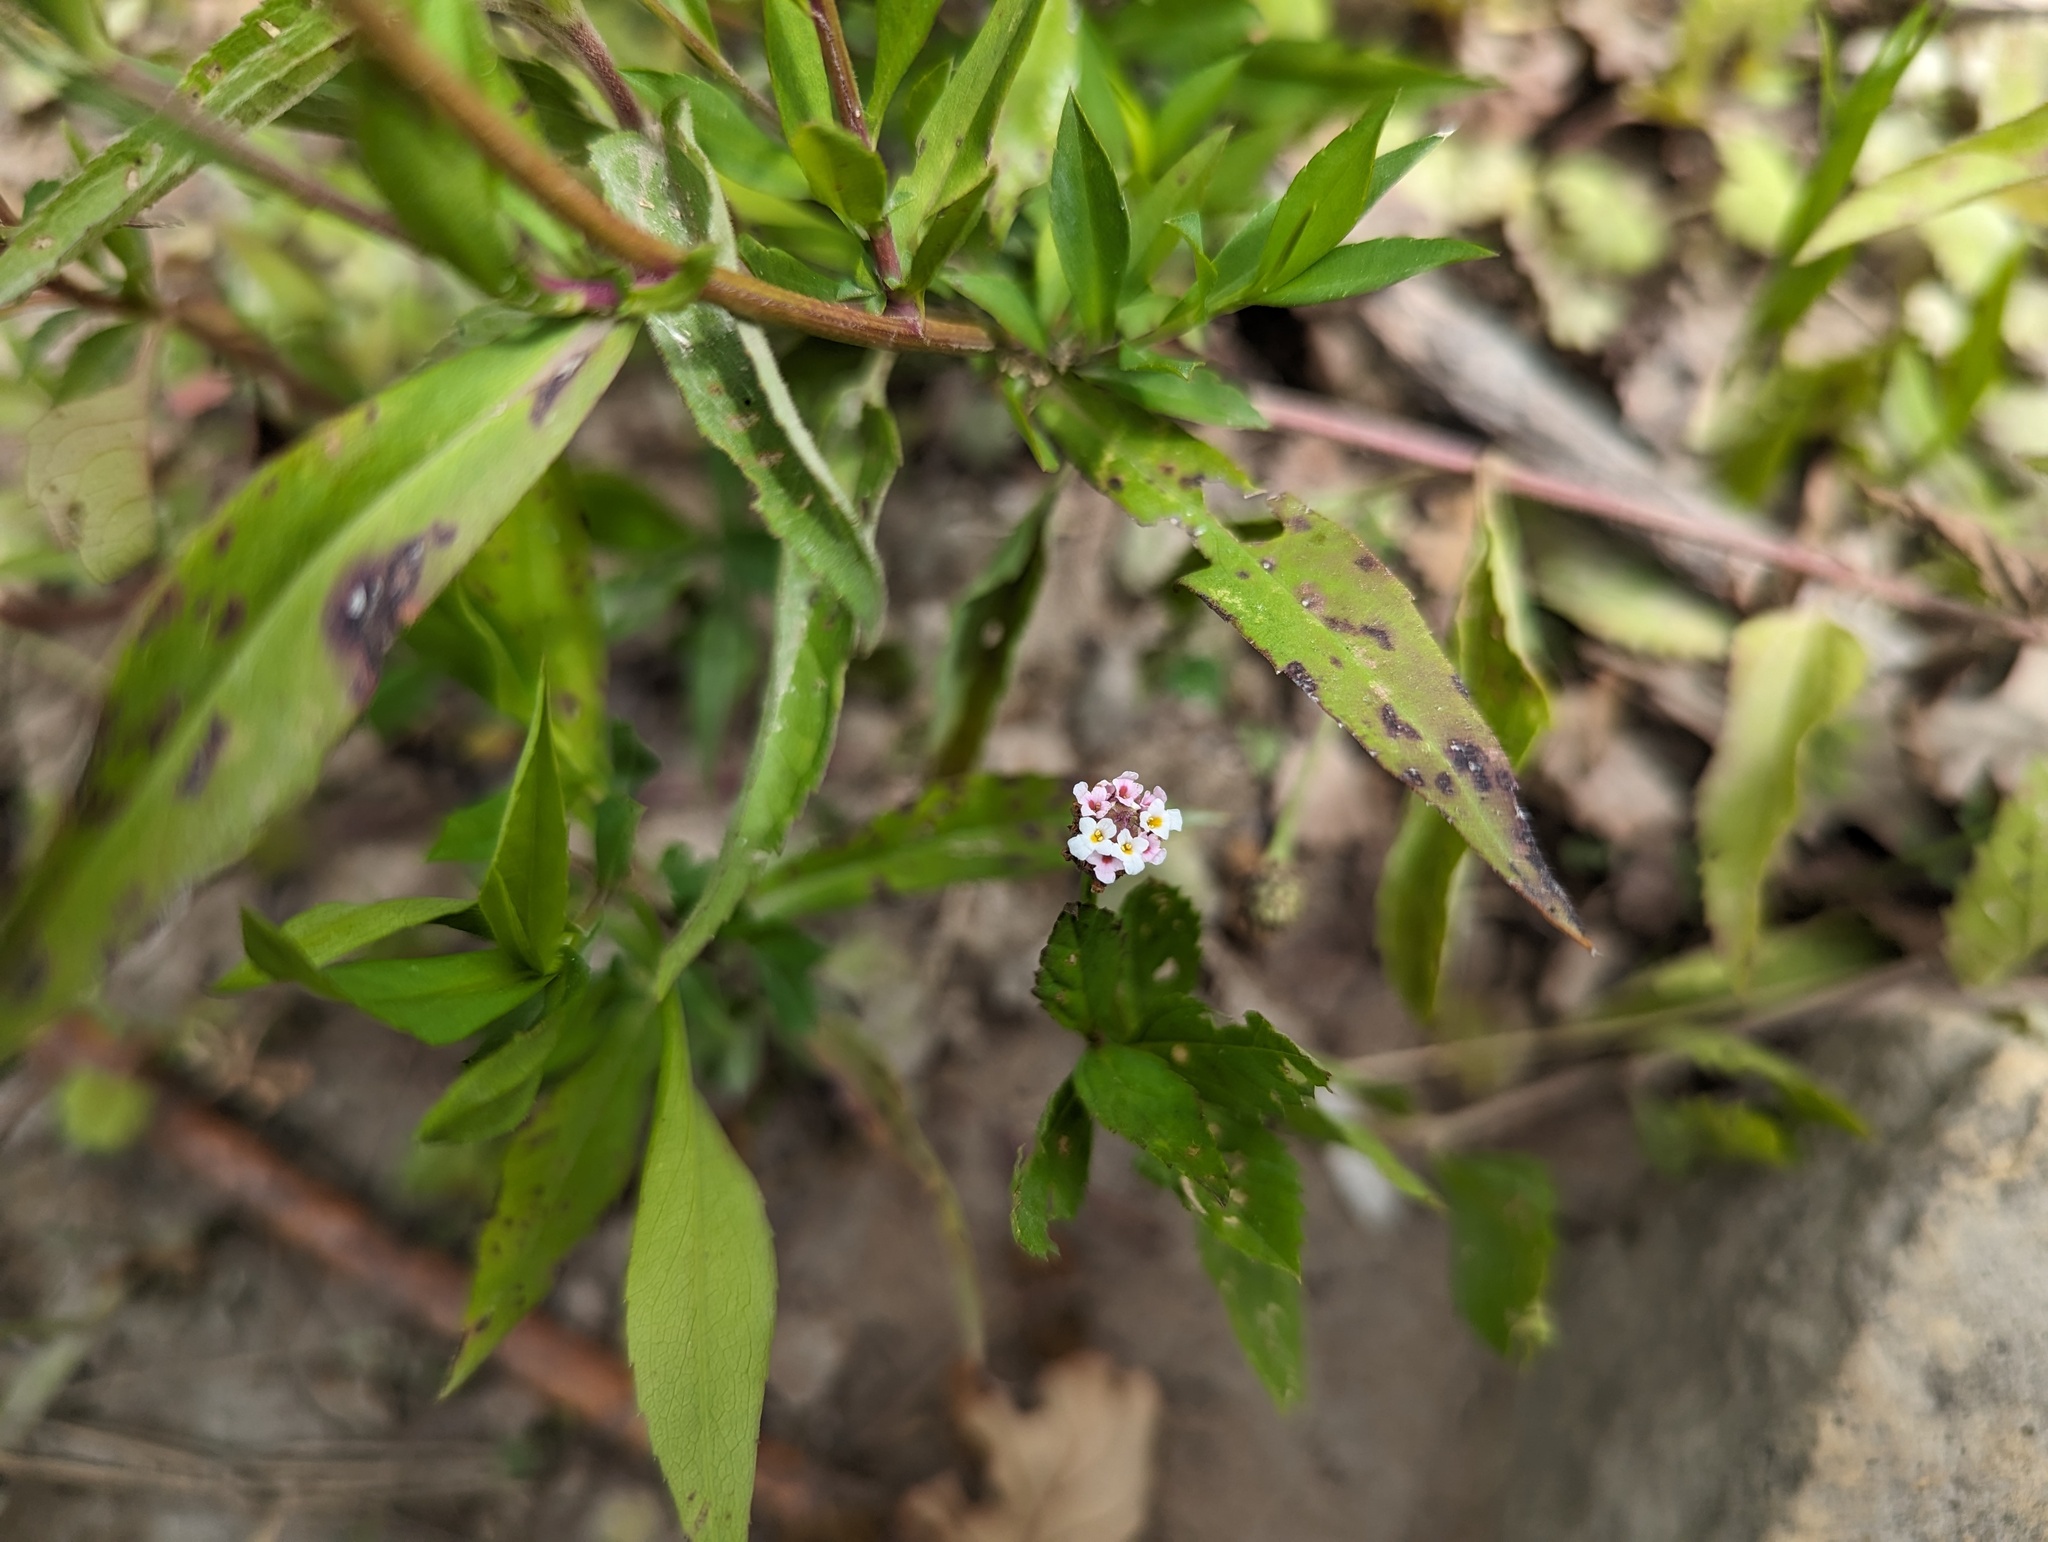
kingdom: Plantae
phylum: Tracheophyta
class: Magnoliopsida
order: Lamiales
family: Verbenaceae
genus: Phyla
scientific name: Phyla lanceolata
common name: Northern fogfruit
